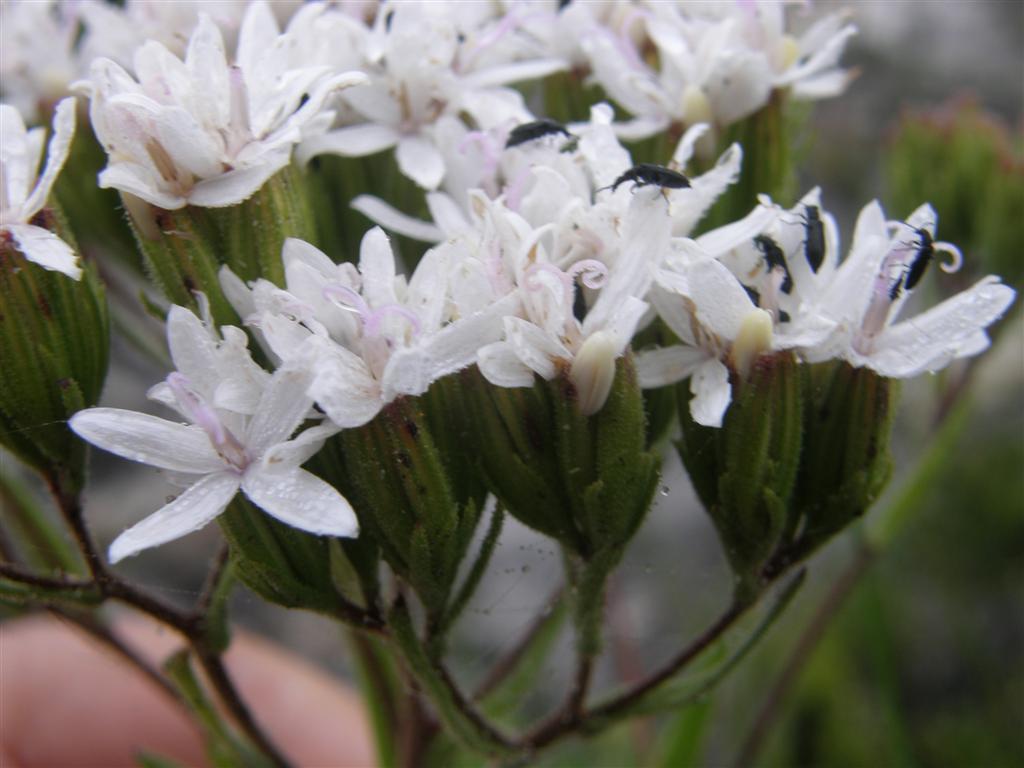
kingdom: Plantae
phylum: Tracheophyta
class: Magnoliopsida
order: Asterales
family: Asteraceae
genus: Corymbium
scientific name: Corymbium villosum
